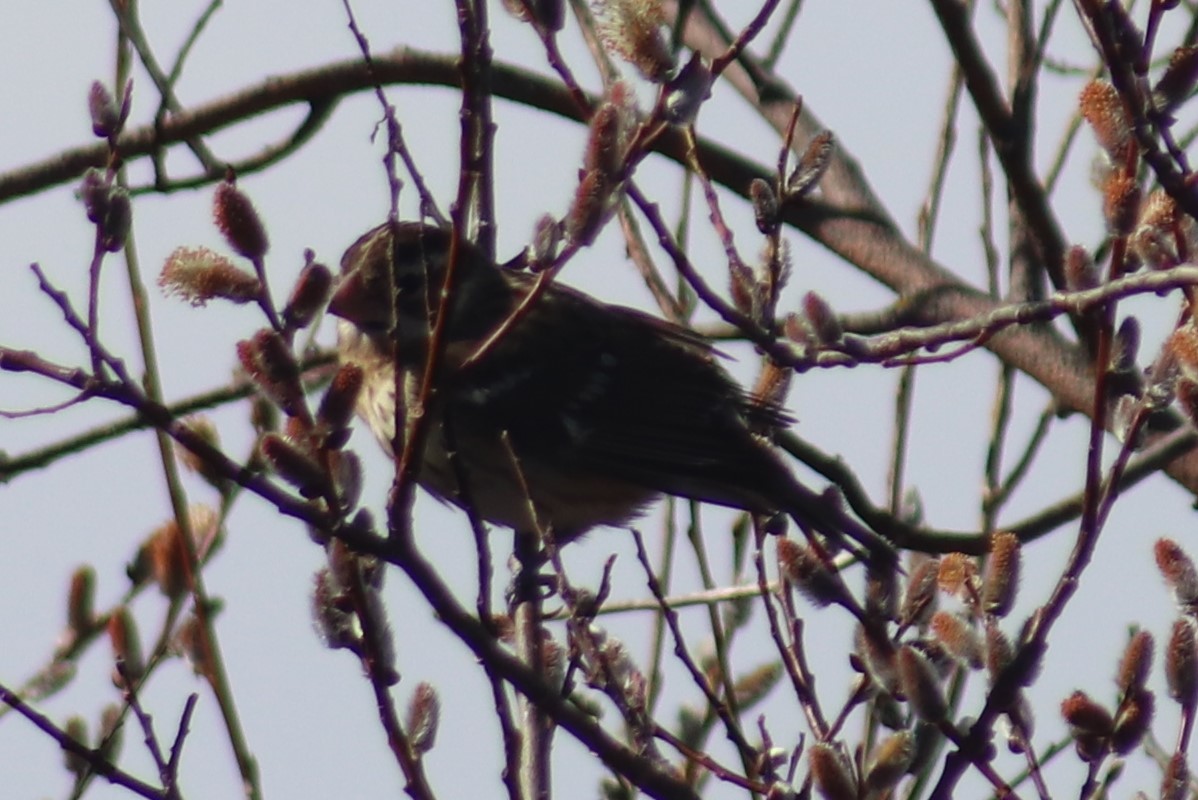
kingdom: Animalia
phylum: Chordata
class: Aves
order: Passeriformes
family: Cardinalidae
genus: Pheucticus
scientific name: Pheucticus ludovicianus
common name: Rose-breasted grosbeak
